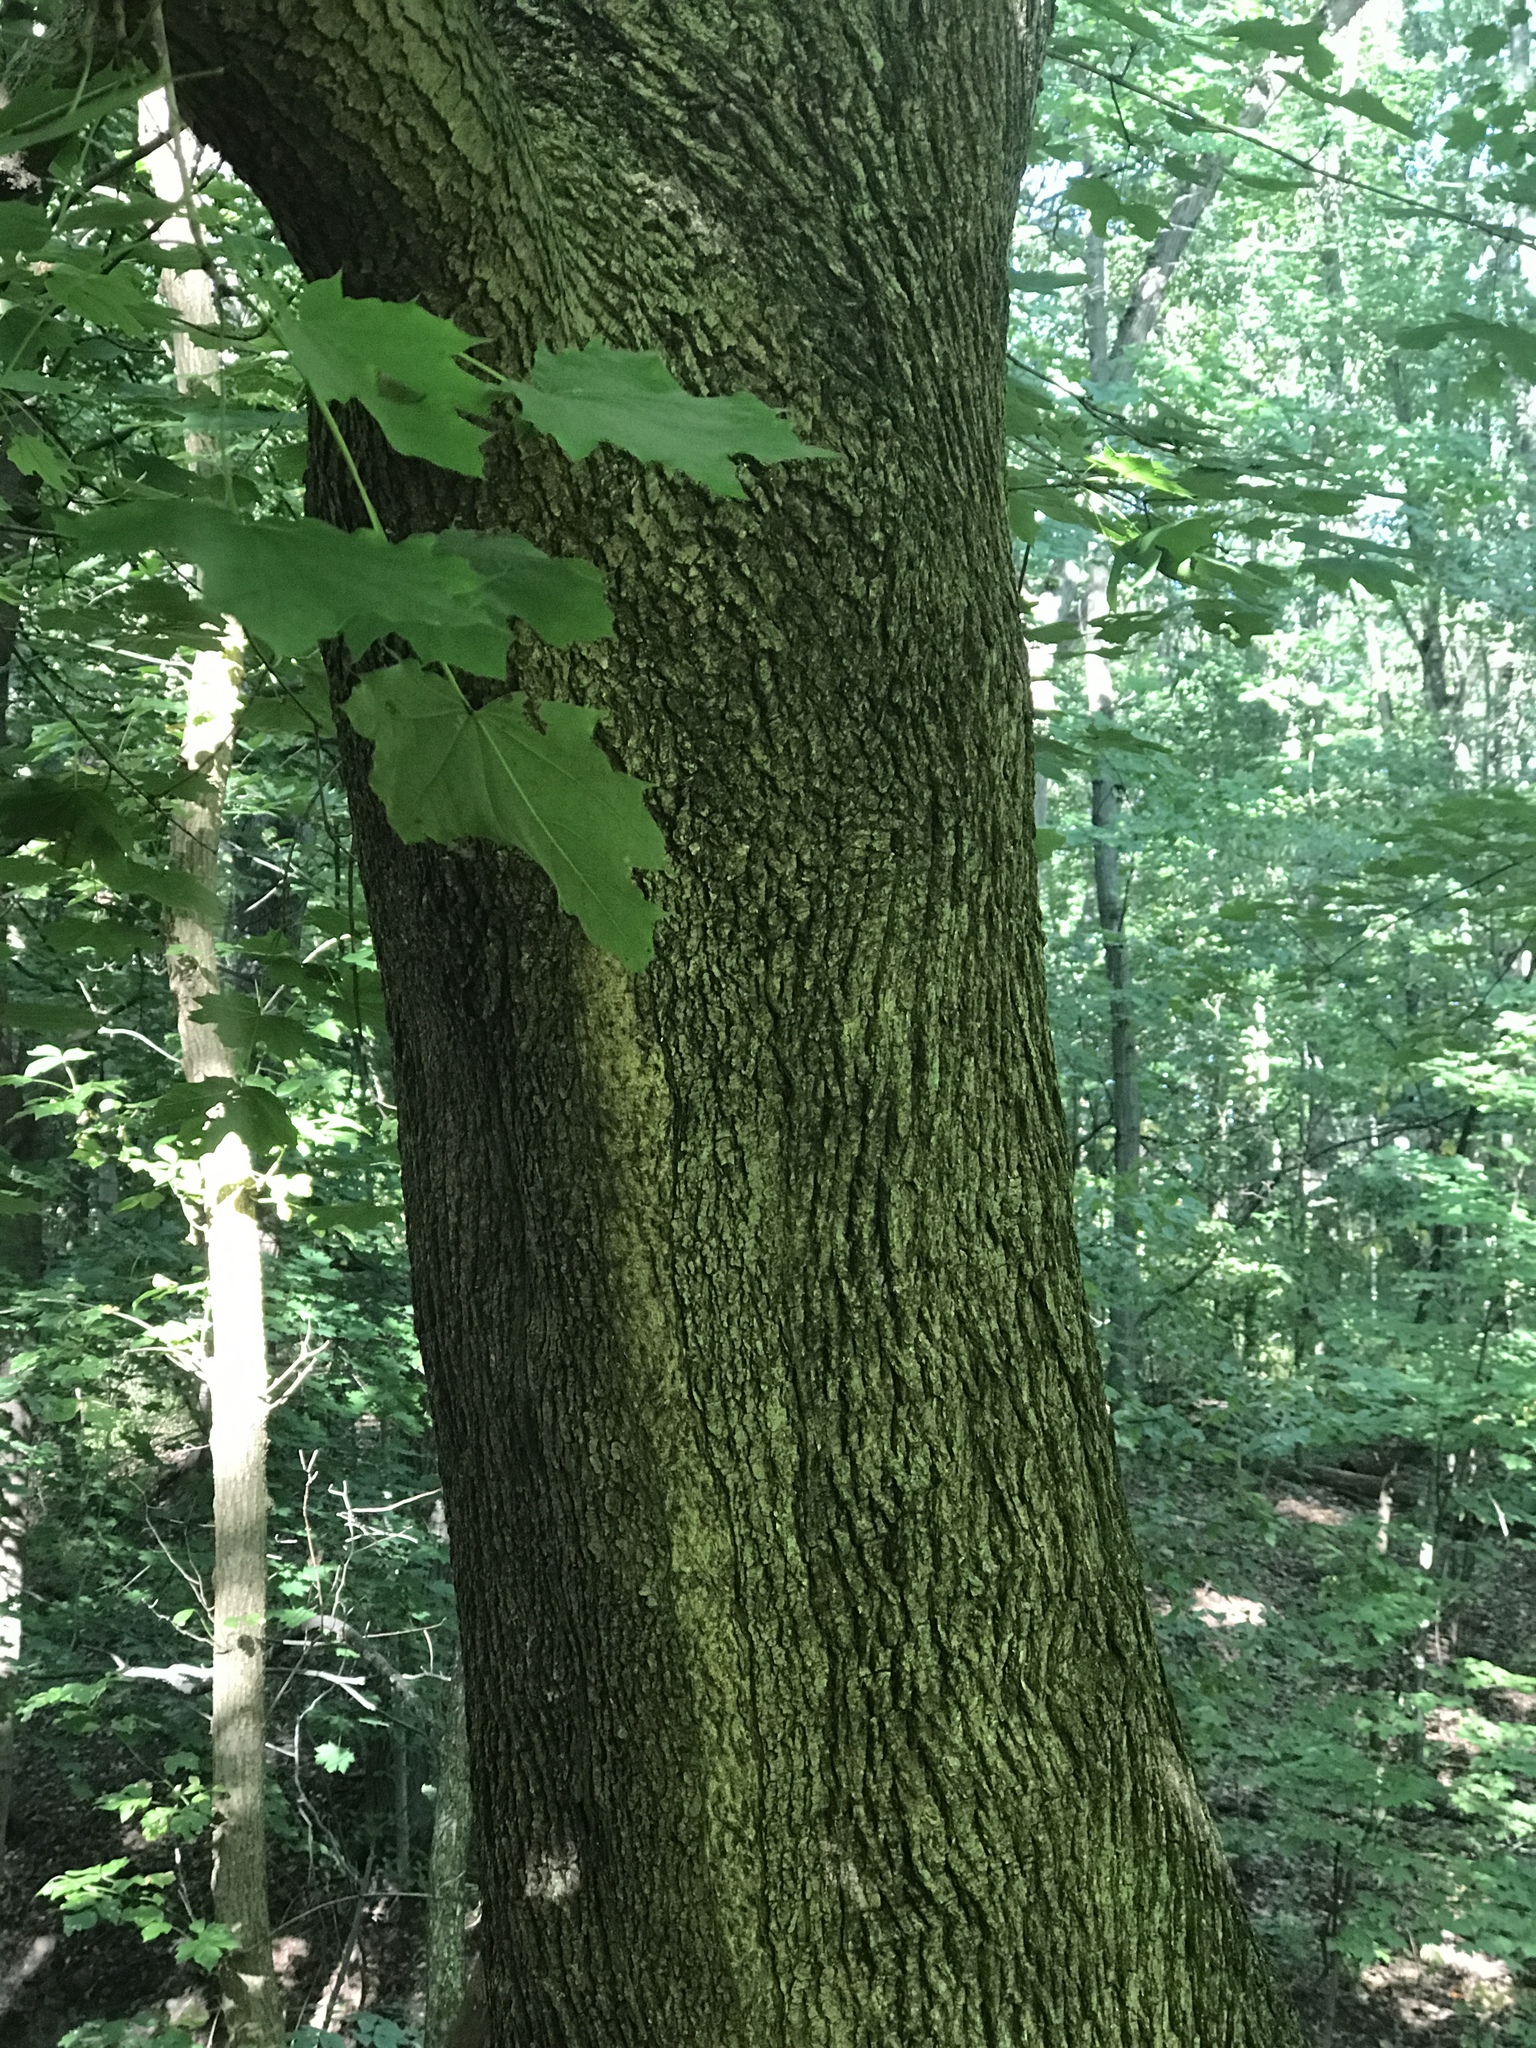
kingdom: Plantae
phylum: Tracheophyta
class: Magnoliopsida
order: Sapindales
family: Sapindaceae
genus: Acer
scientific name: Acer platanoides
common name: Norway maple
